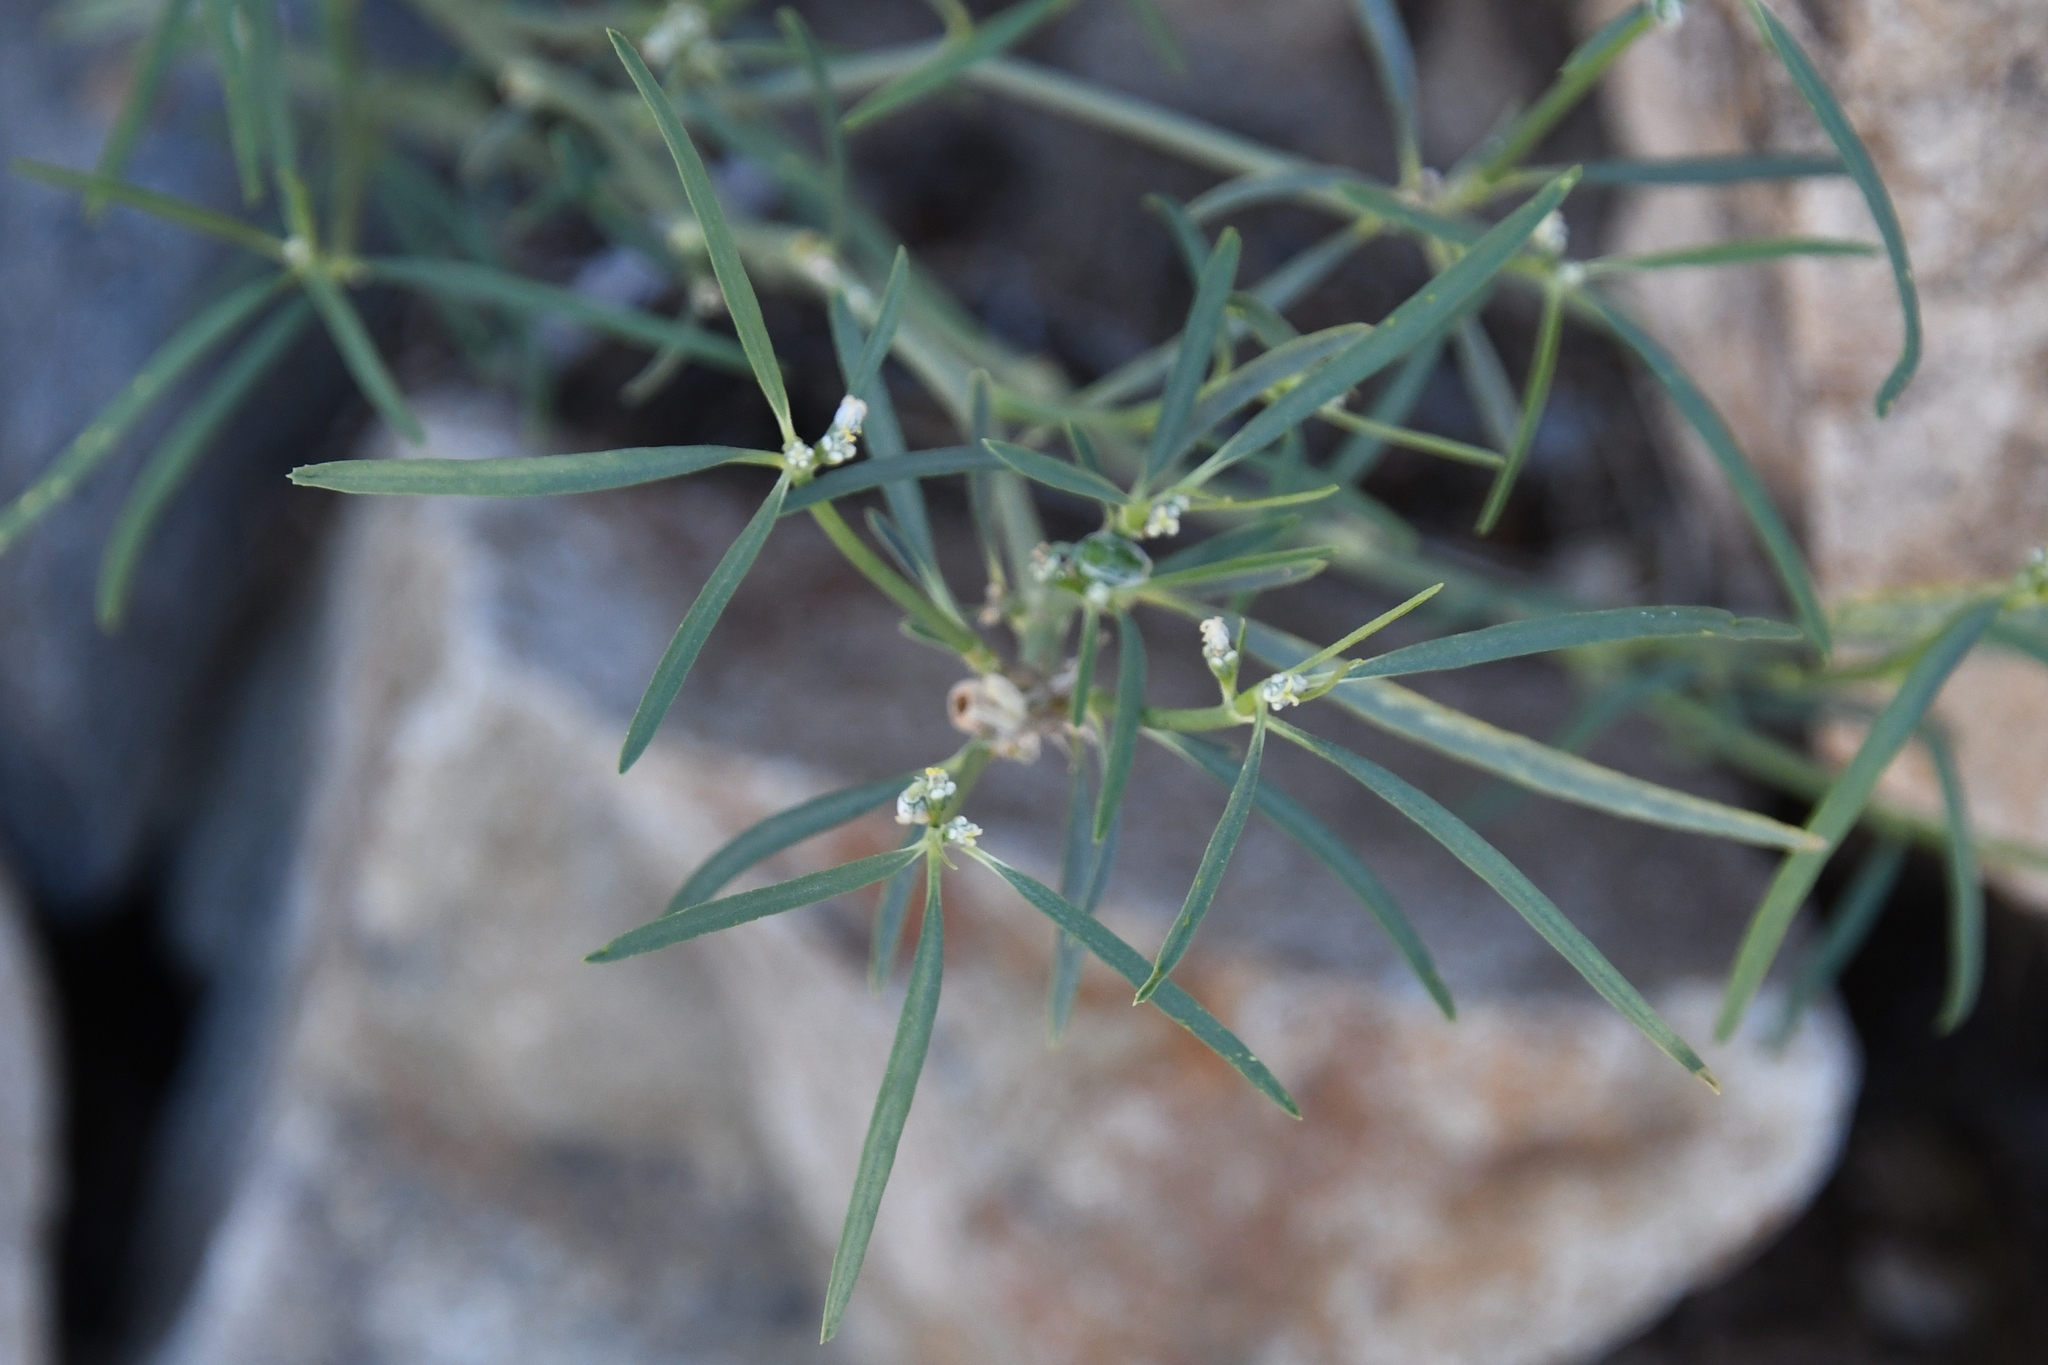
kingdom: Plantae
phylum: Tracheophyta
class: Magnoliopsida
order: Malpighiales
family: Euphorbiaceae
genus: Euphorbia
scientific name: Euphorbia eriantha
